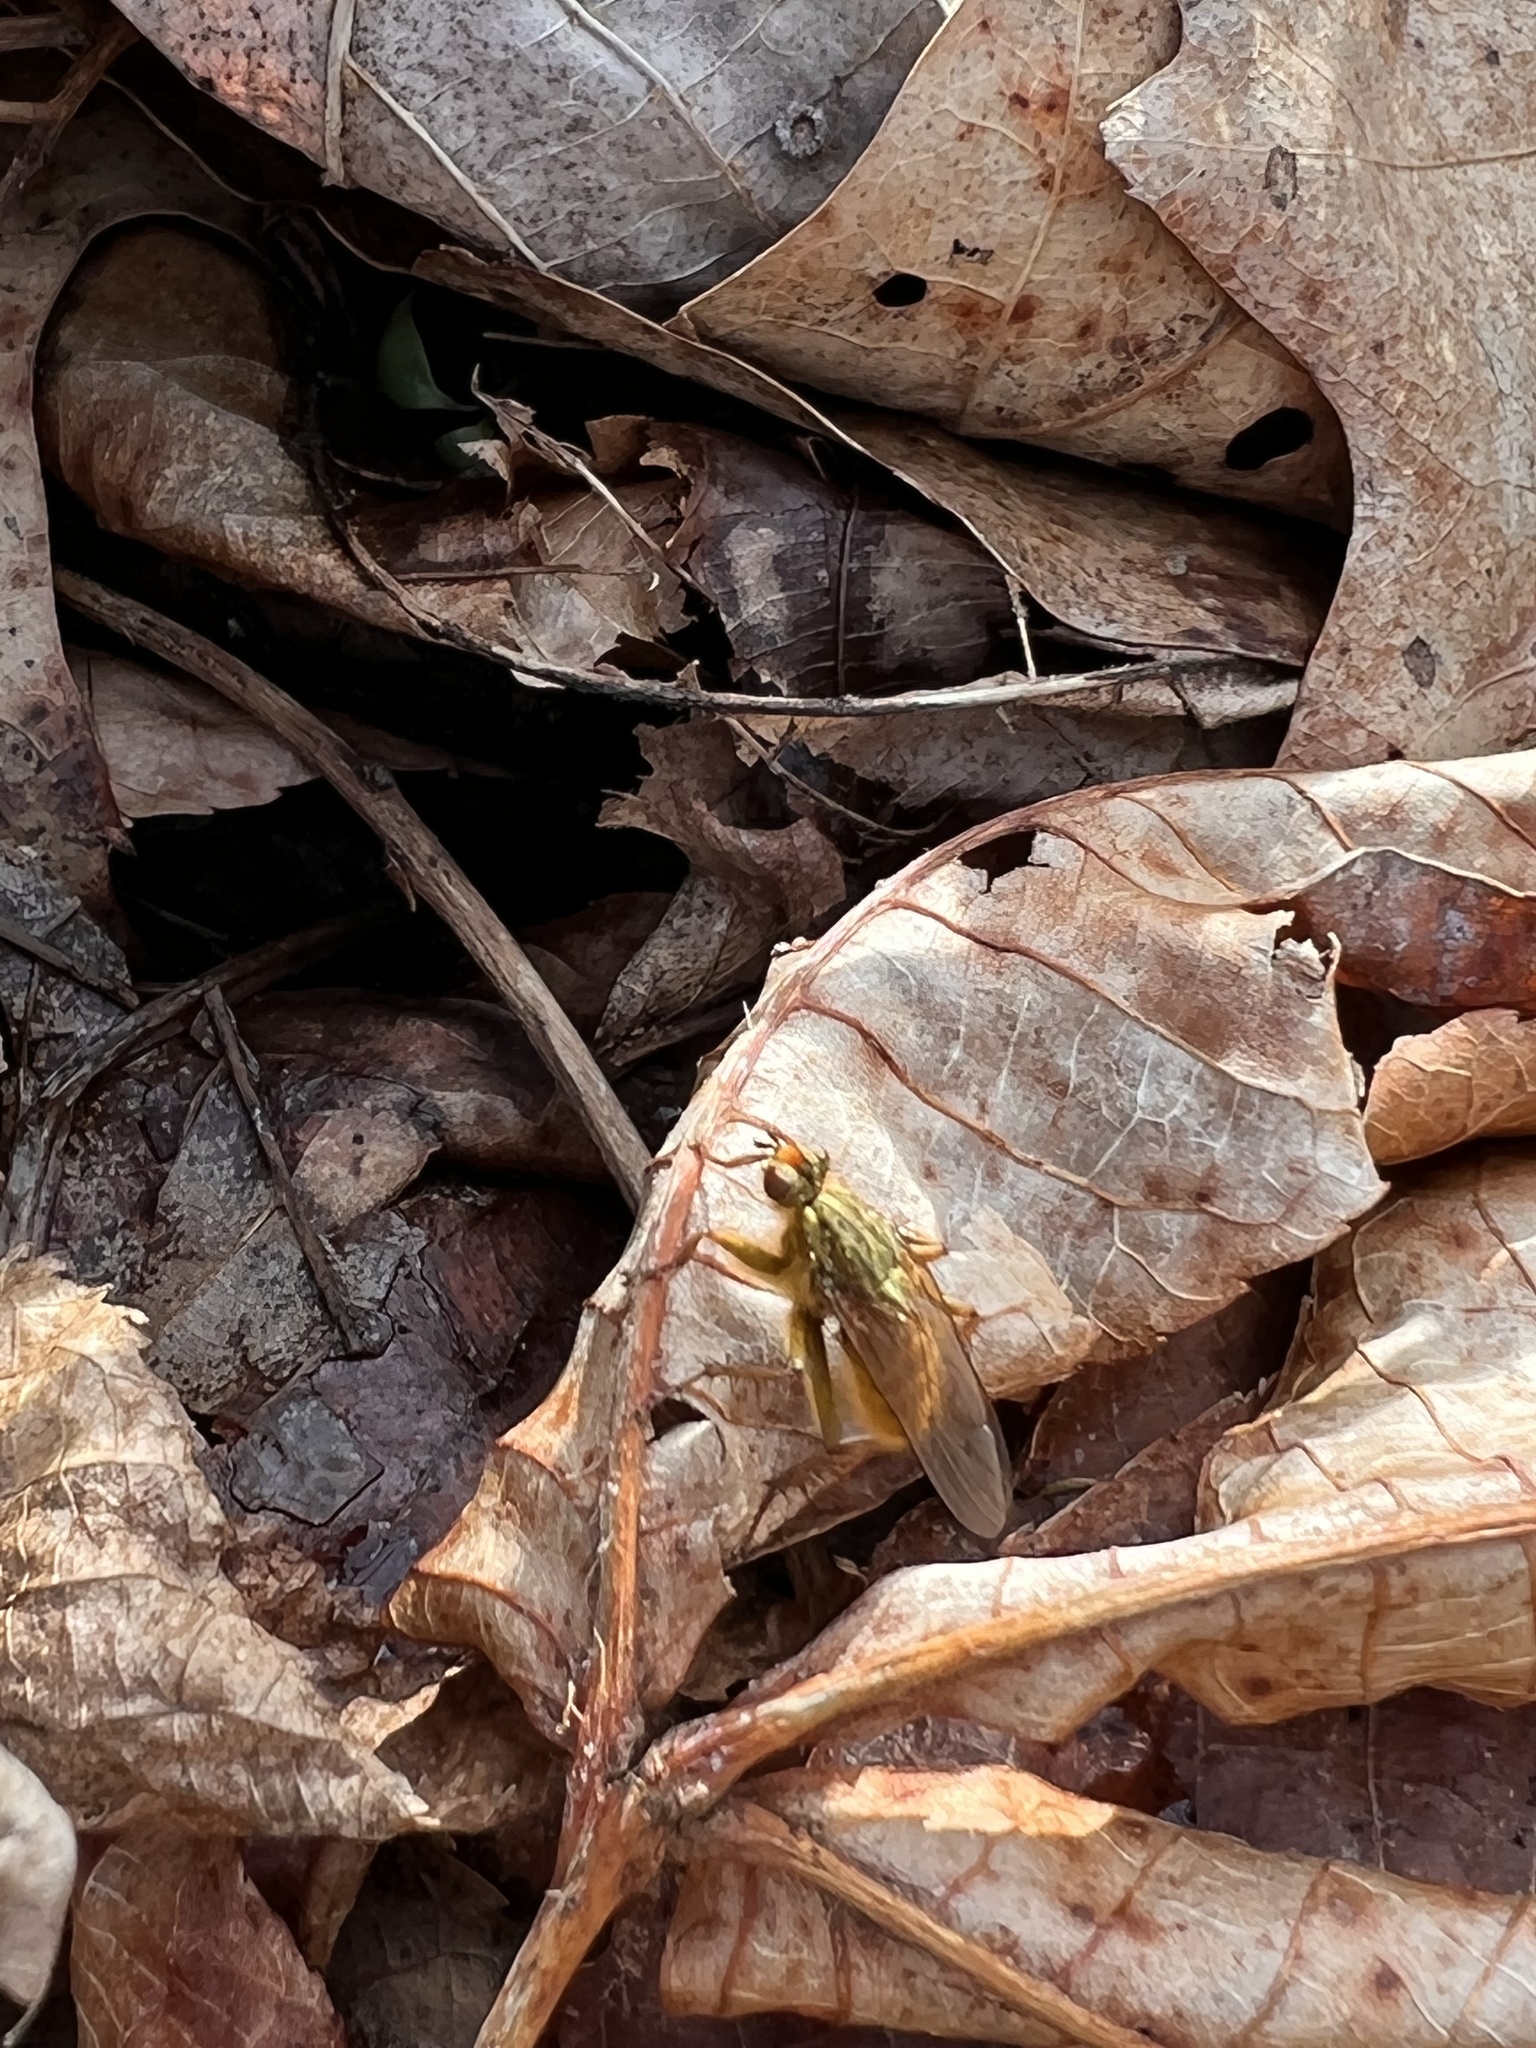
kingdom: Animalia
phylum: Arthropoda
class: Insecta
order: Diptera
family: Scathophagidae
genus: Scathophaga
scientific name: Scathophaga stercoraria
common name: Yellow dung fly
